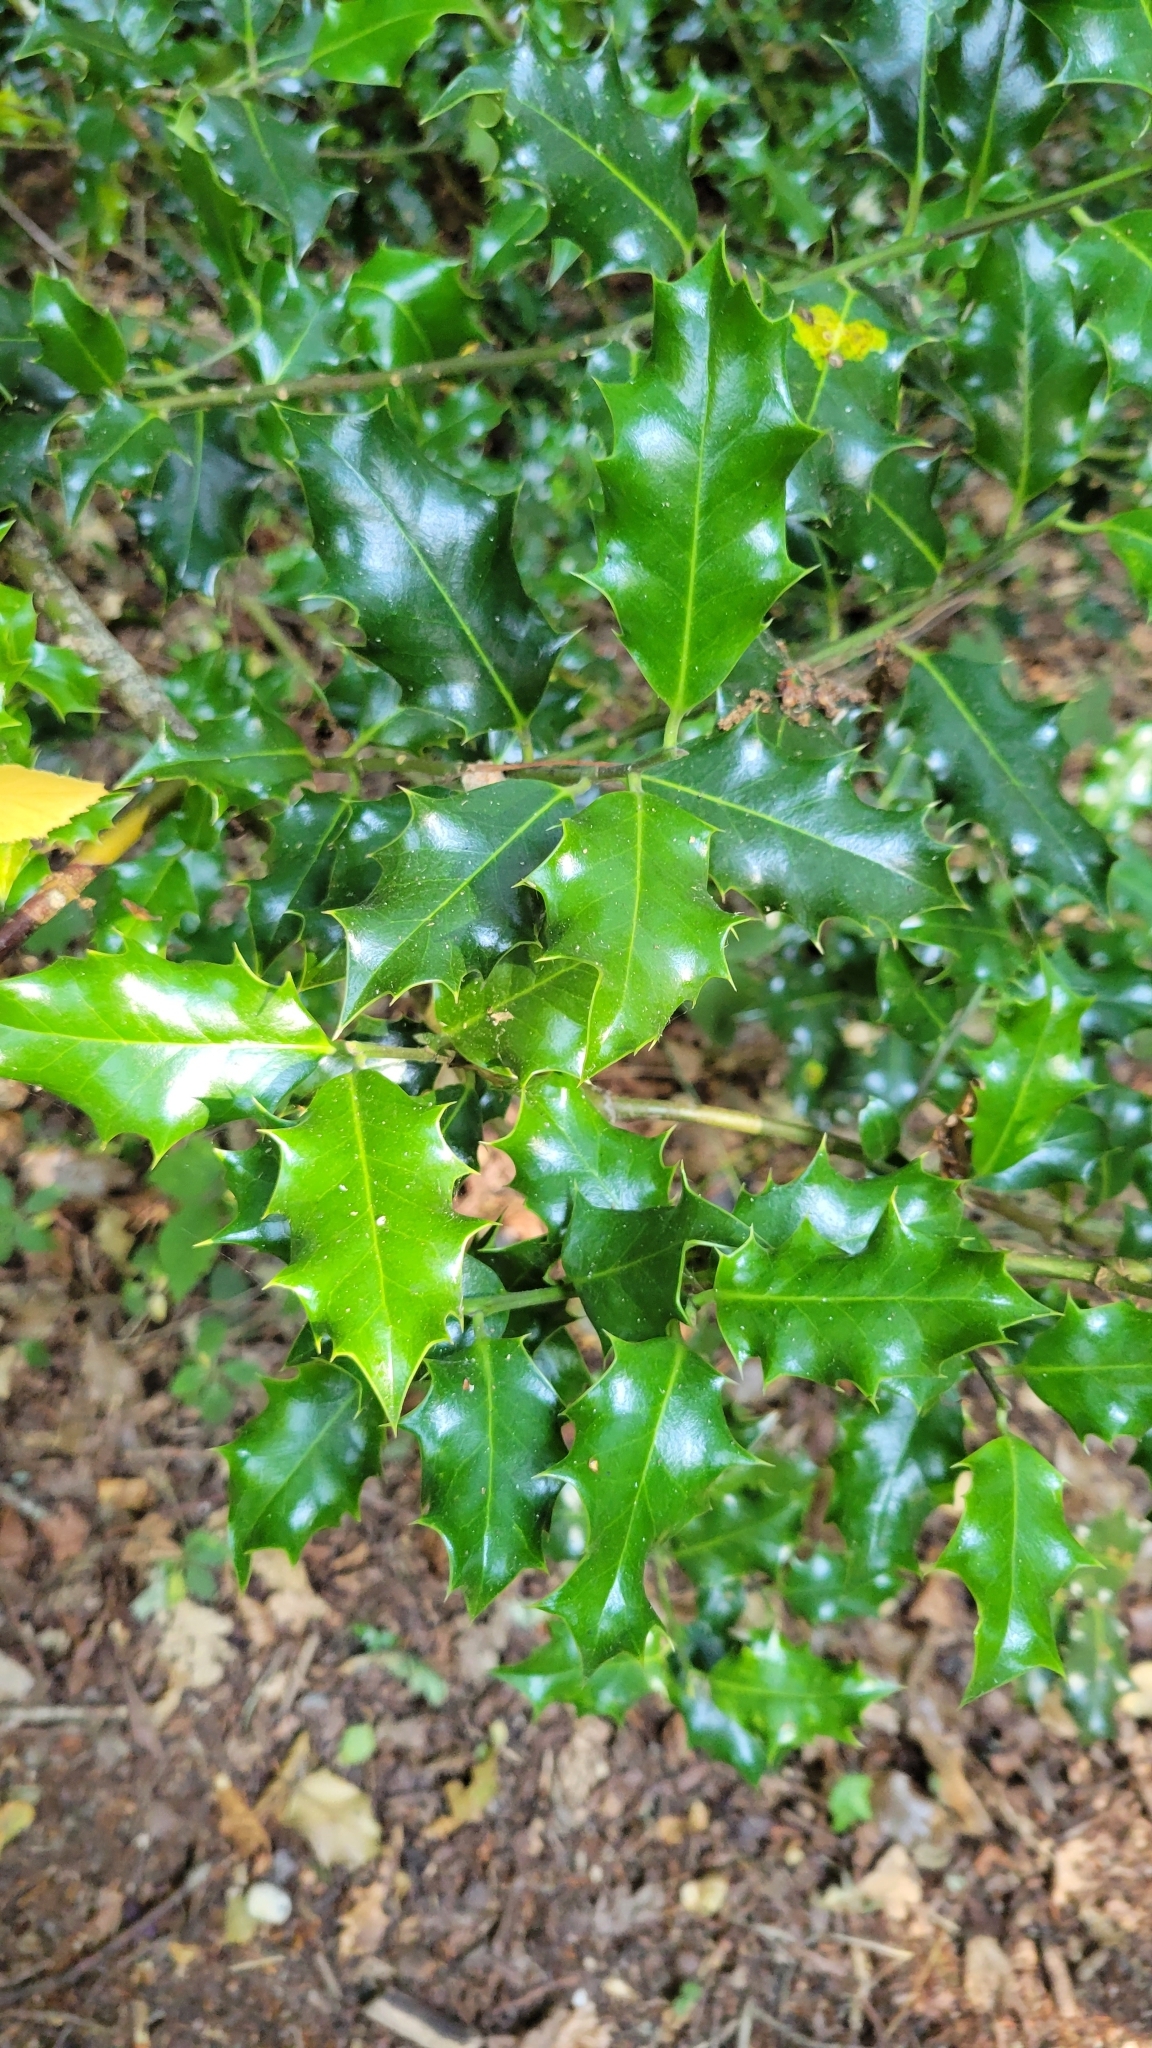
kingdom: Plantae
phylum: Tracheophyta
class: Magnoliopsida
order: Aquifoliales
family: Aquifoliaceae
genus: Ilex
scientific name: Ilex aquifolium
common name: English holly
